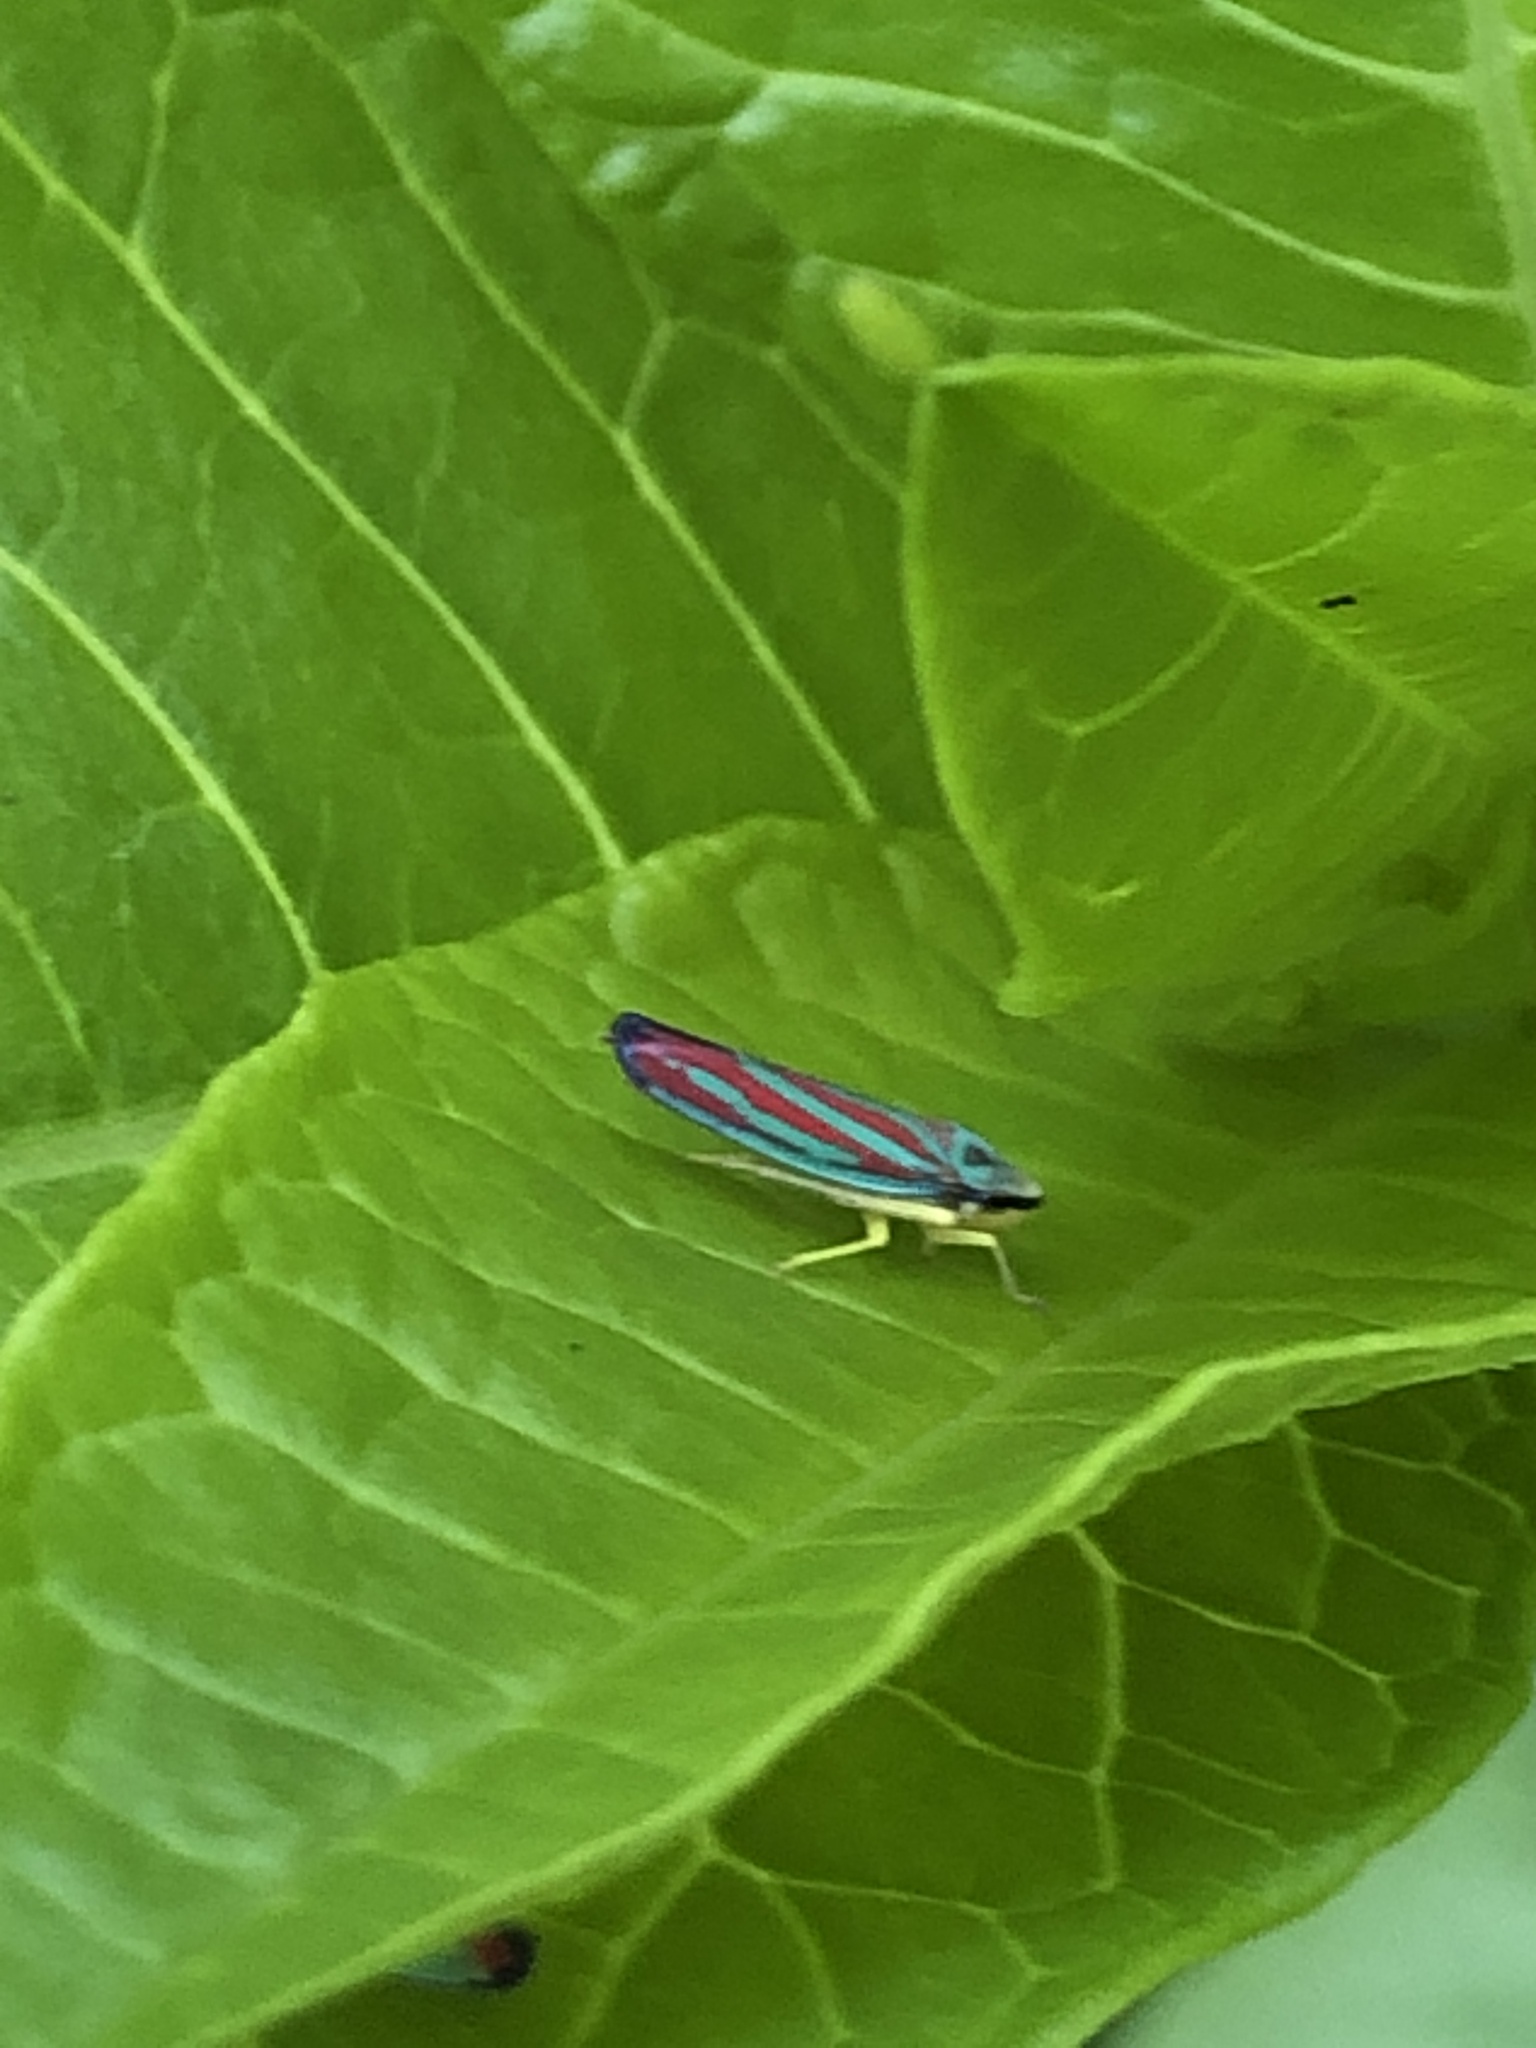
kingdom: Animalia
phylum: Arthropoda
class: Insecta
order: Hemiptera
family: Cicadellidae
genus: Graphocephala
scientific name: Graphocephala coccinea
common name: Candy-striped leafhopper
